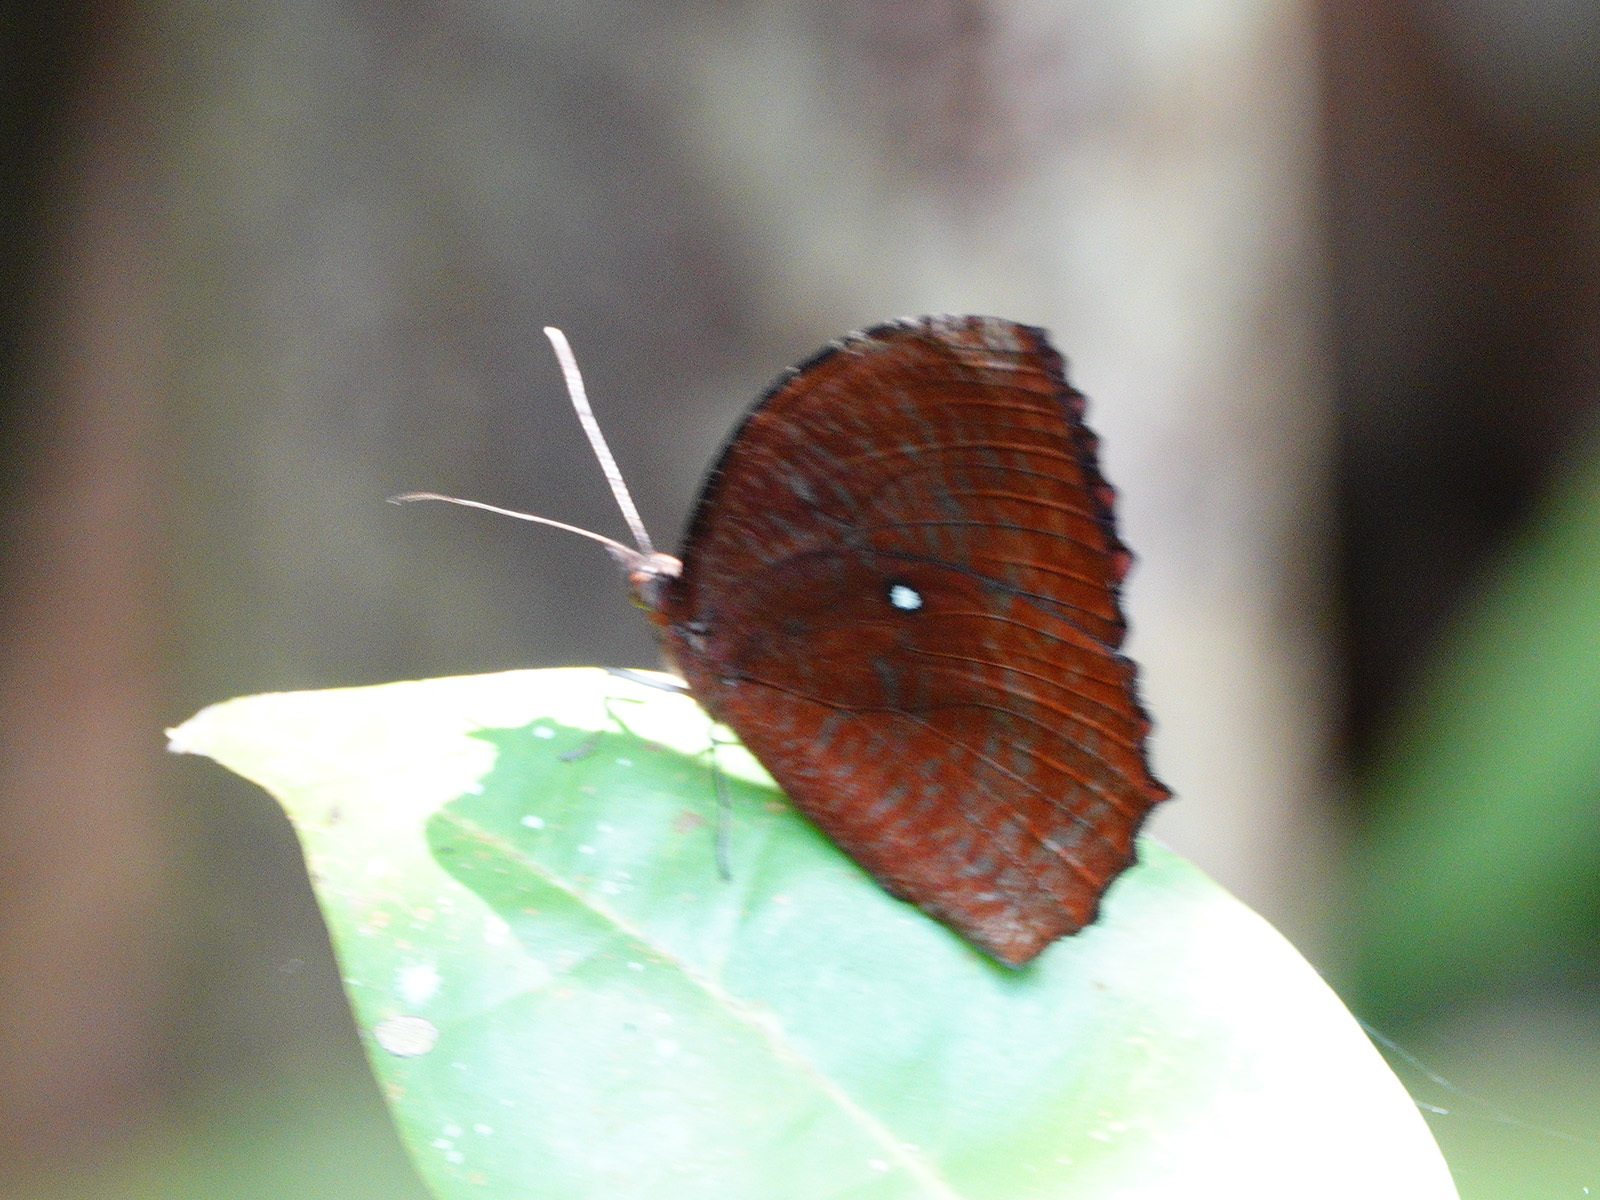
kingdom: Animalia
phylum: Arthropoda
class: Insecta
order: Lepidoptera
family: Nymphalidae
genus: Elymnias
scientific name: Elymnias hypermnestra
